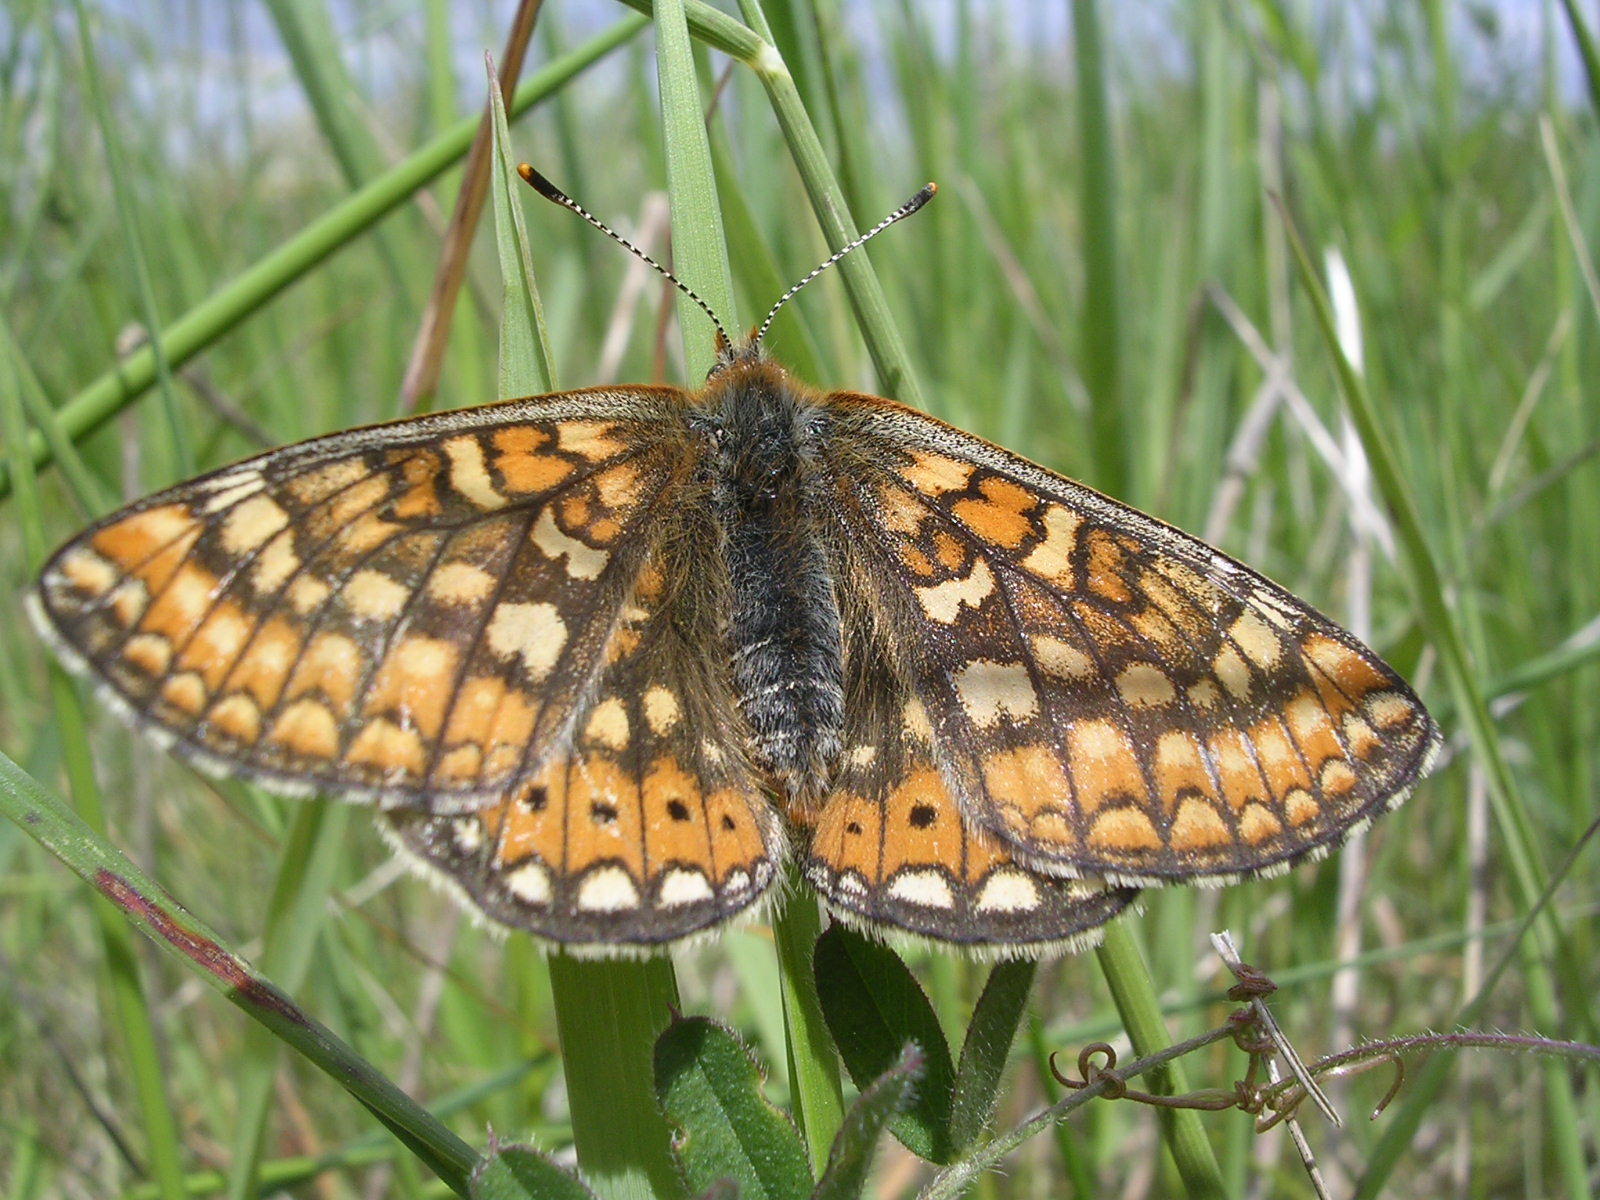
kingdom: Animalia
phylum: Arthropoda
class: Insecta
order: Lepidoptera
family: Nymphalidae
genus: Euphydryas
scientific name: Euphydryas aurinia
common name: Marsh fritillary
